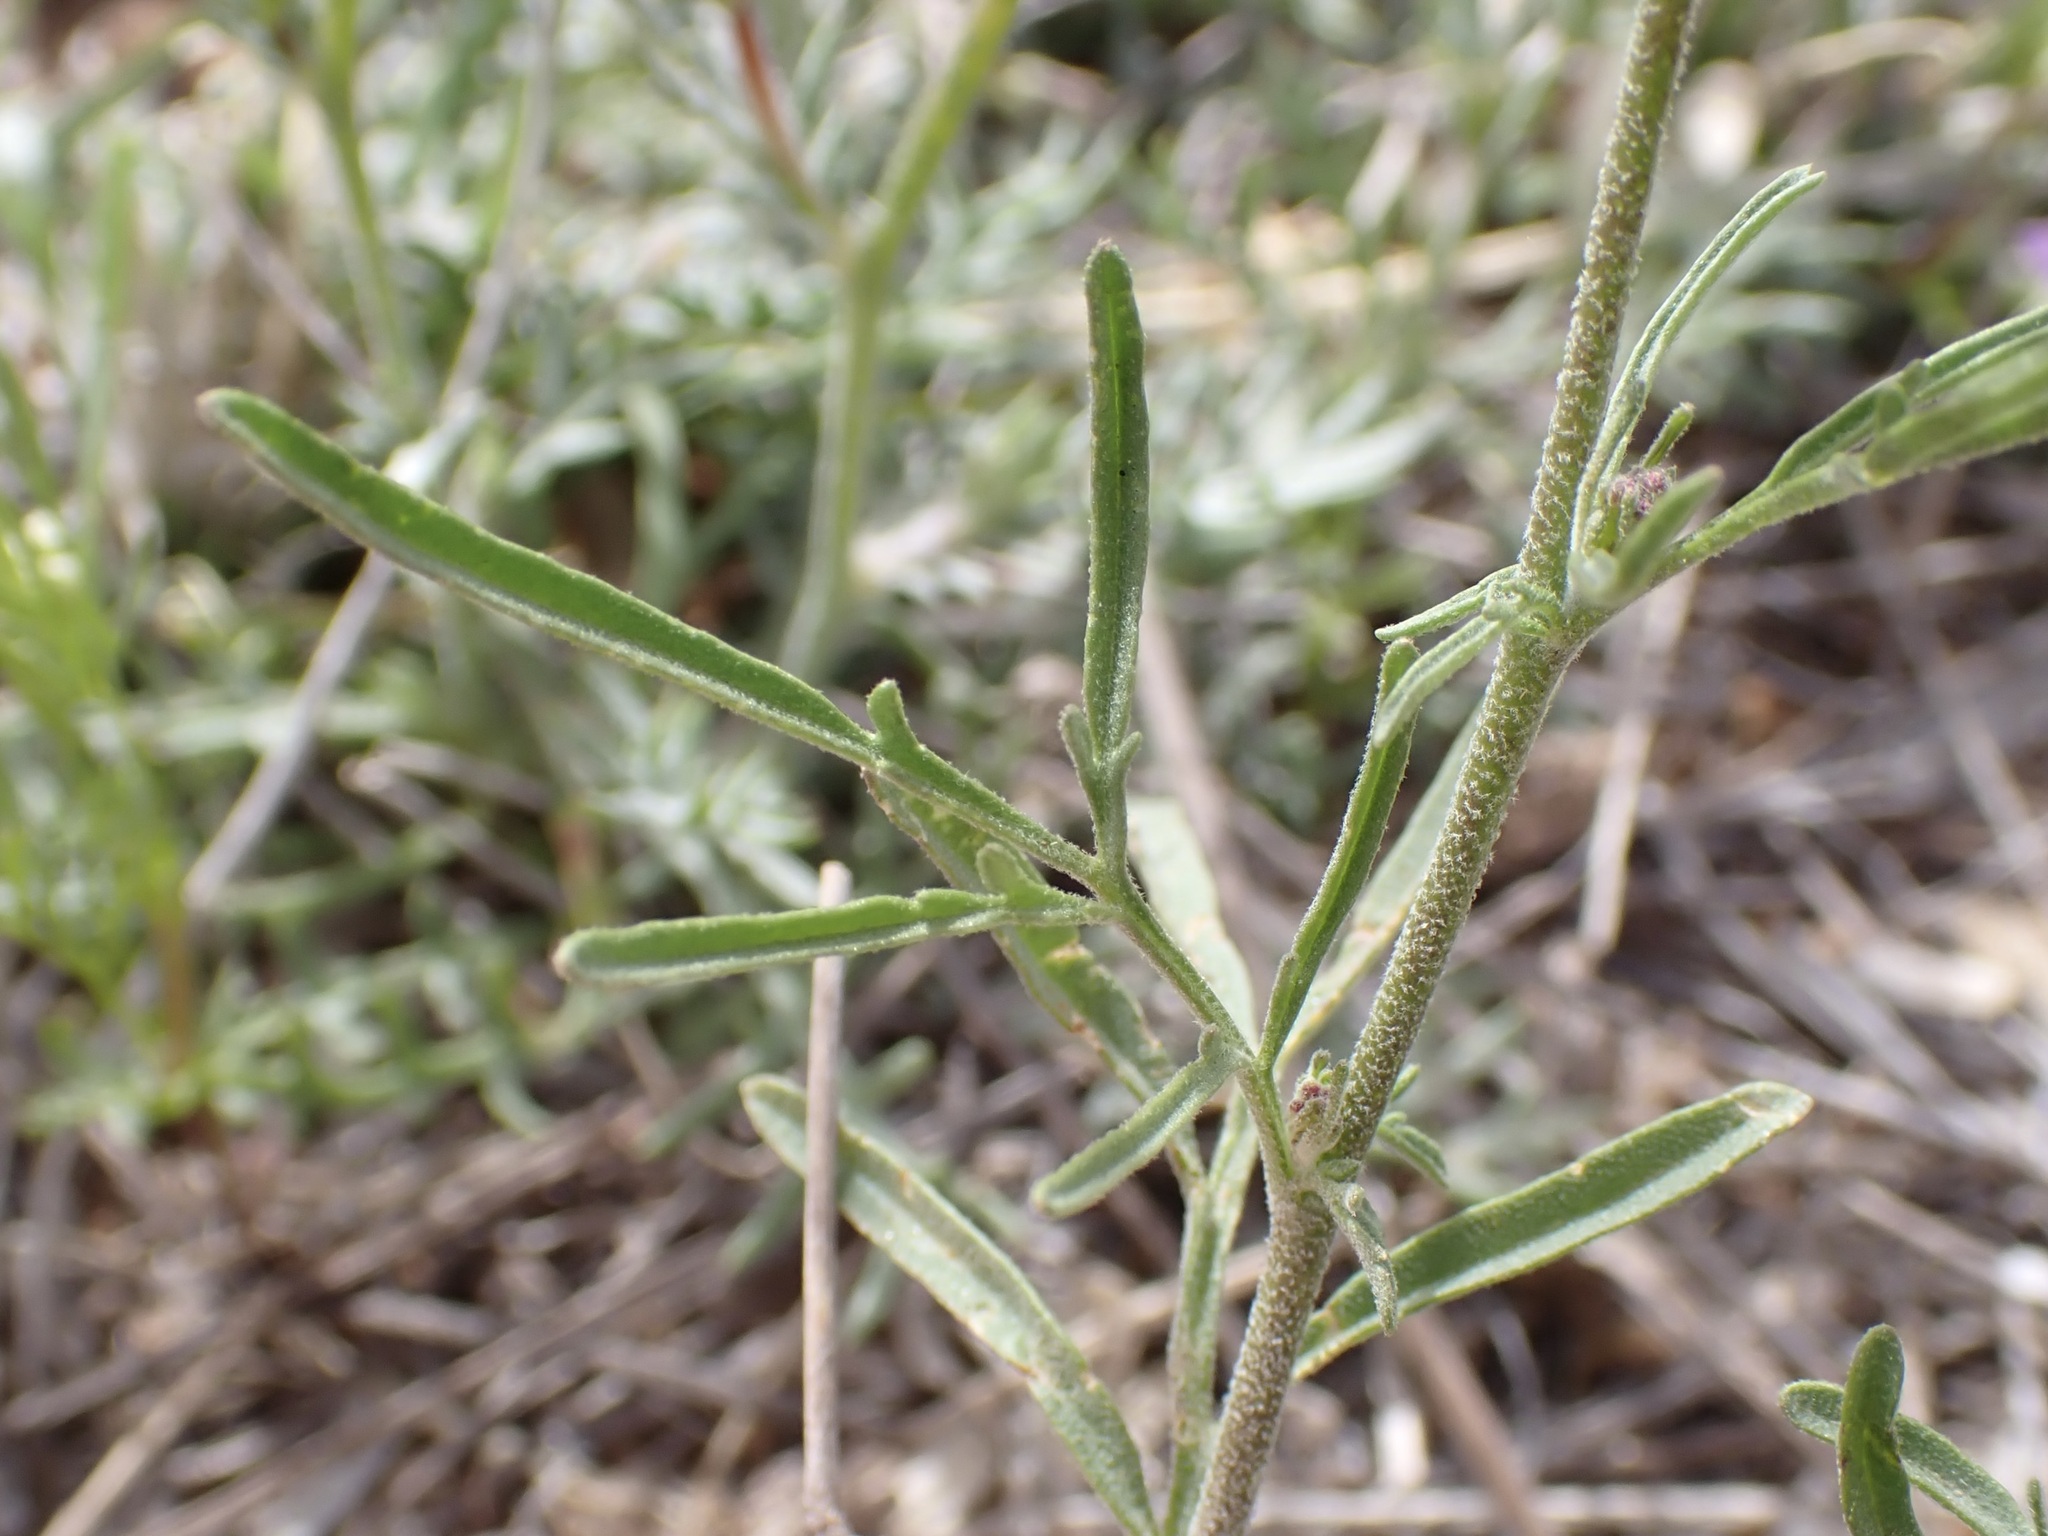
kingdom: Plantae
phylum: Tracheophyta
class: Magnoliopsida
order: Brassicales
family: Brassicaceae
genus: Descurainia
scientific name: Descurainia pinnata
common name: Western tansy mustard
